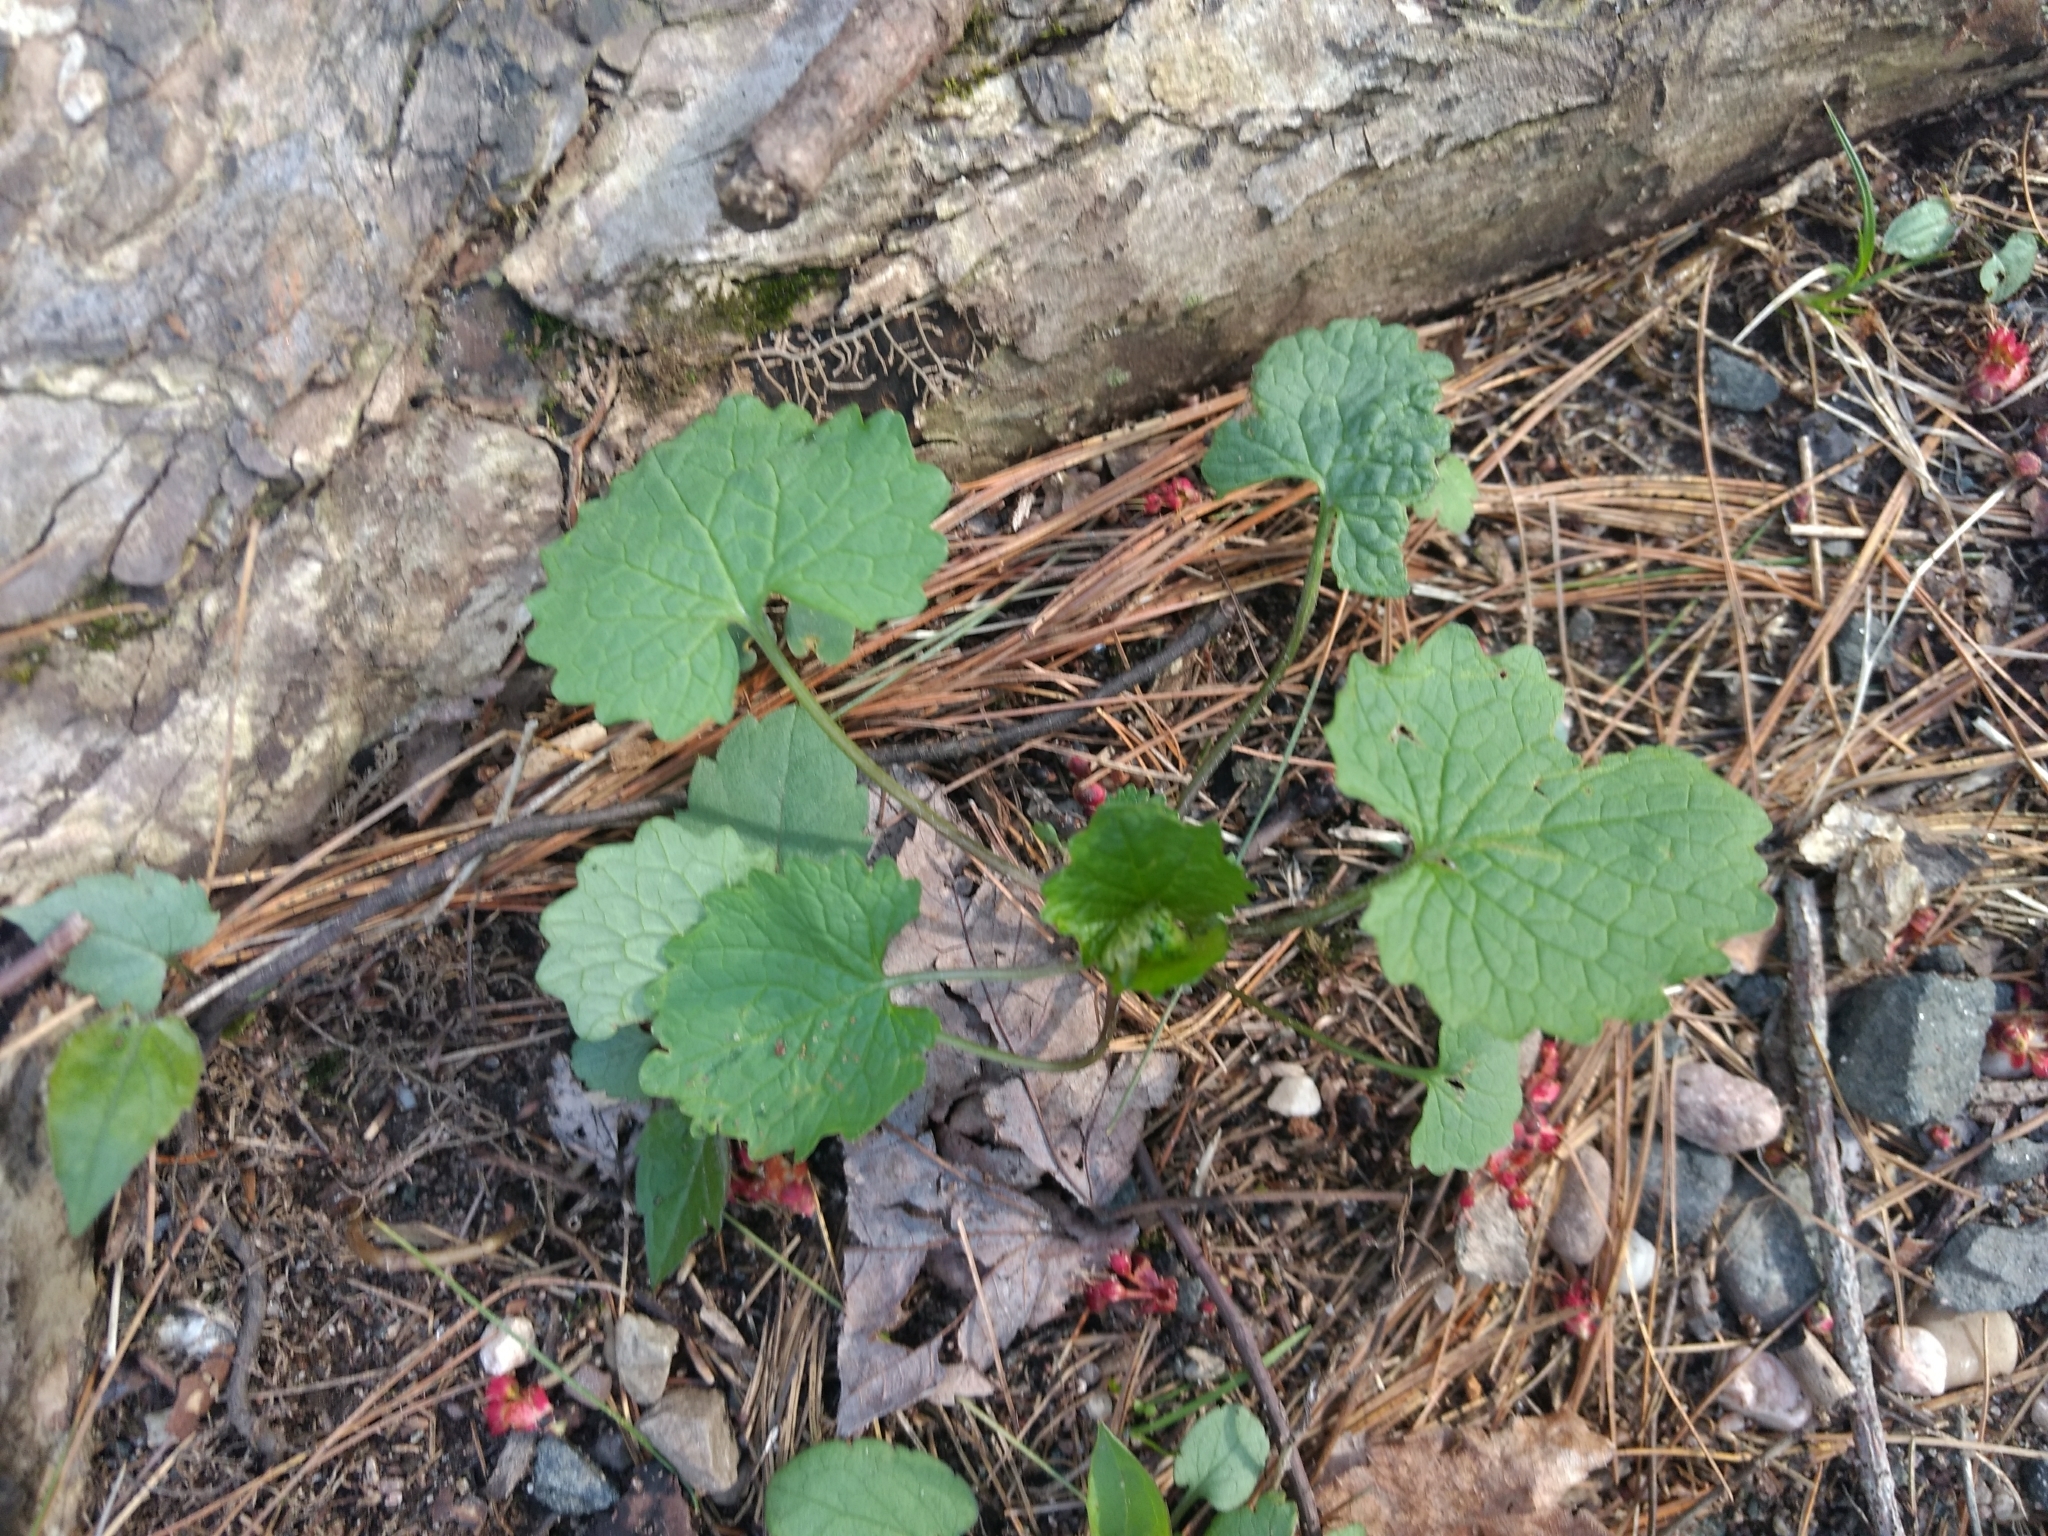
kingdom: Plantae
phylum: Tracheophyta
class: Magnoliopsida
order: Brassicales
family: Brassicaceae
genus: Alliaria
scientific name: Alliaria petiolata
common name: Garlic mustard
